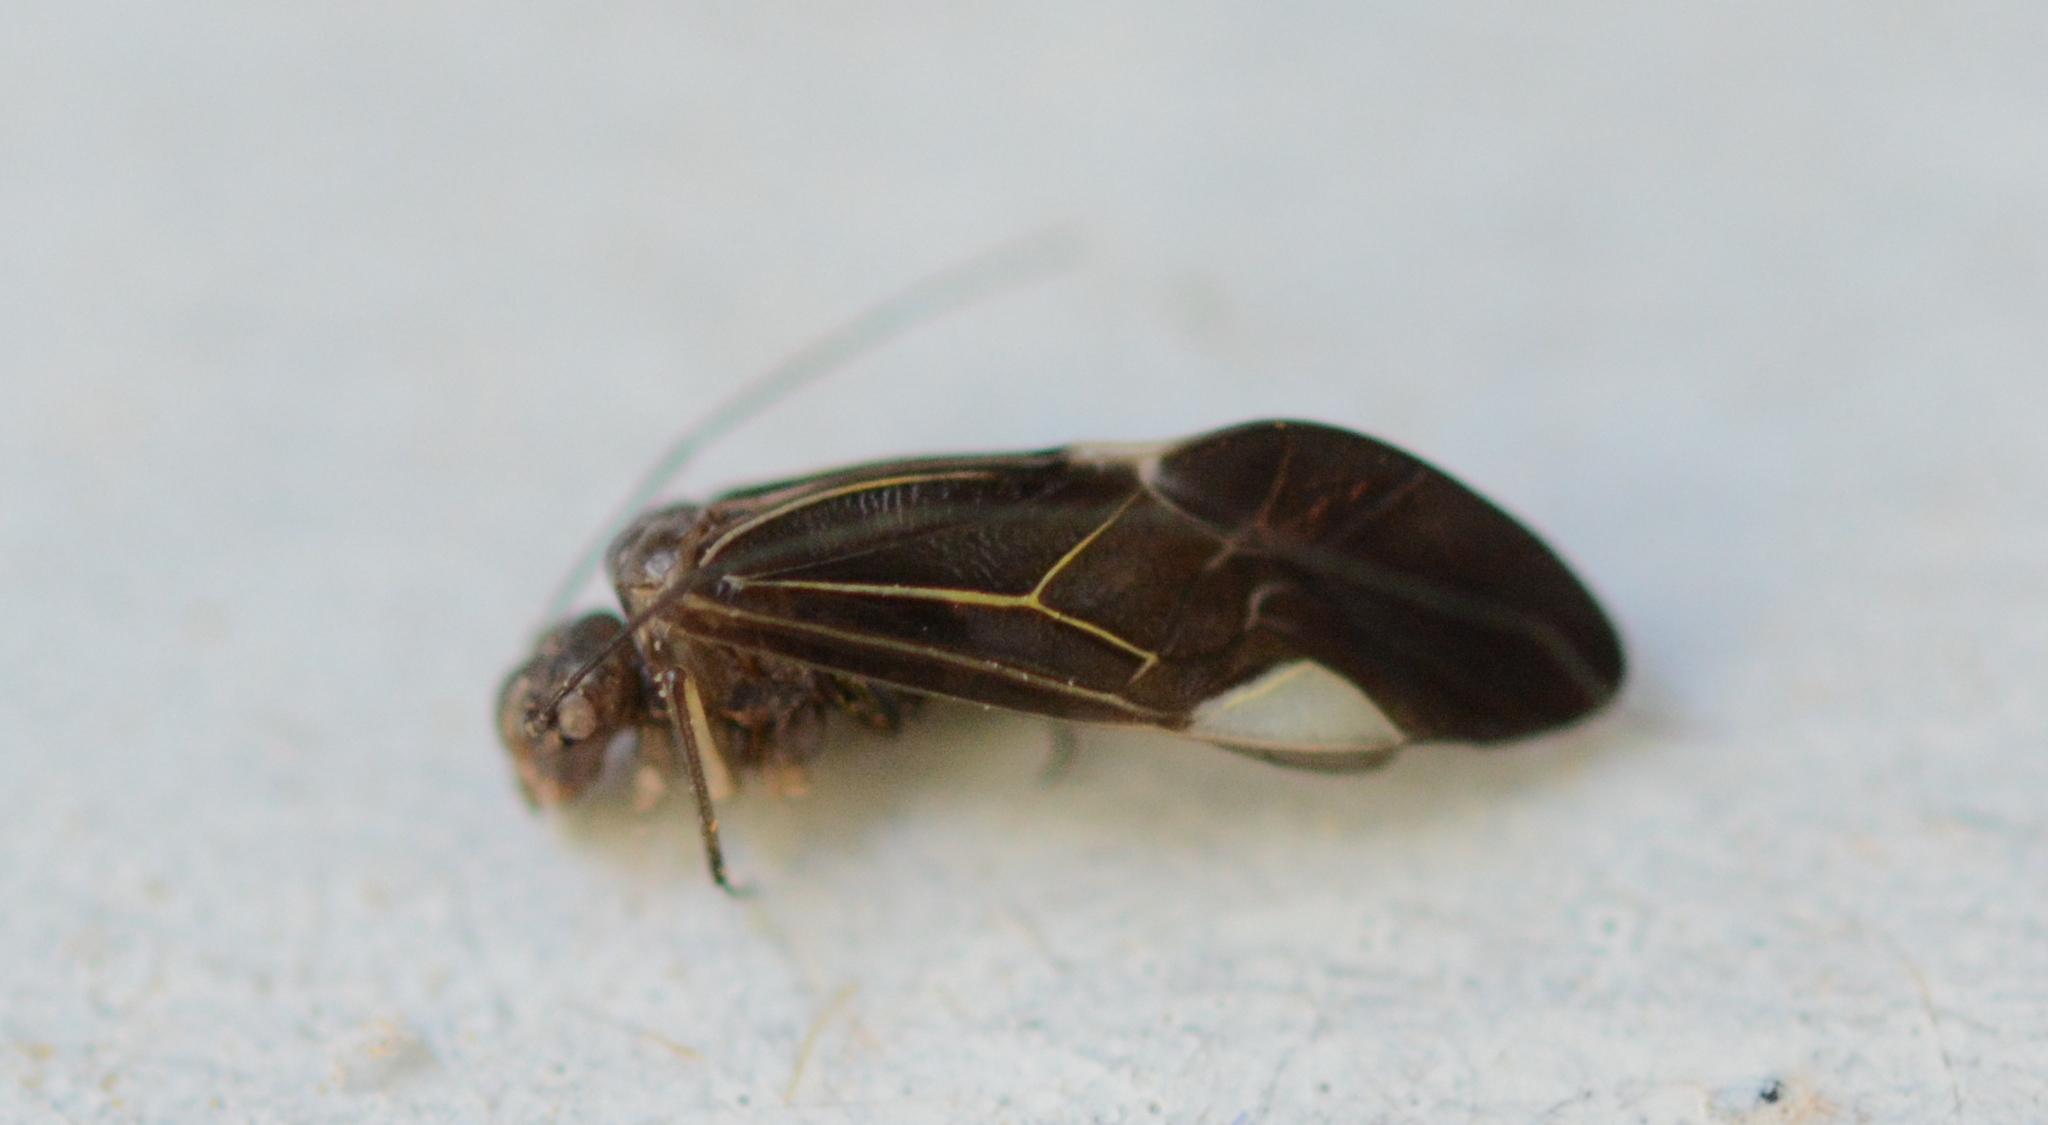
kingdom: Animalia
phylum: Arthropoda
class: Insecta
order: Psocodea
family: Psocidae
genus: Cerastipsocus
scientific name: Cerastipsocus venosus
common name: Tree cattle
